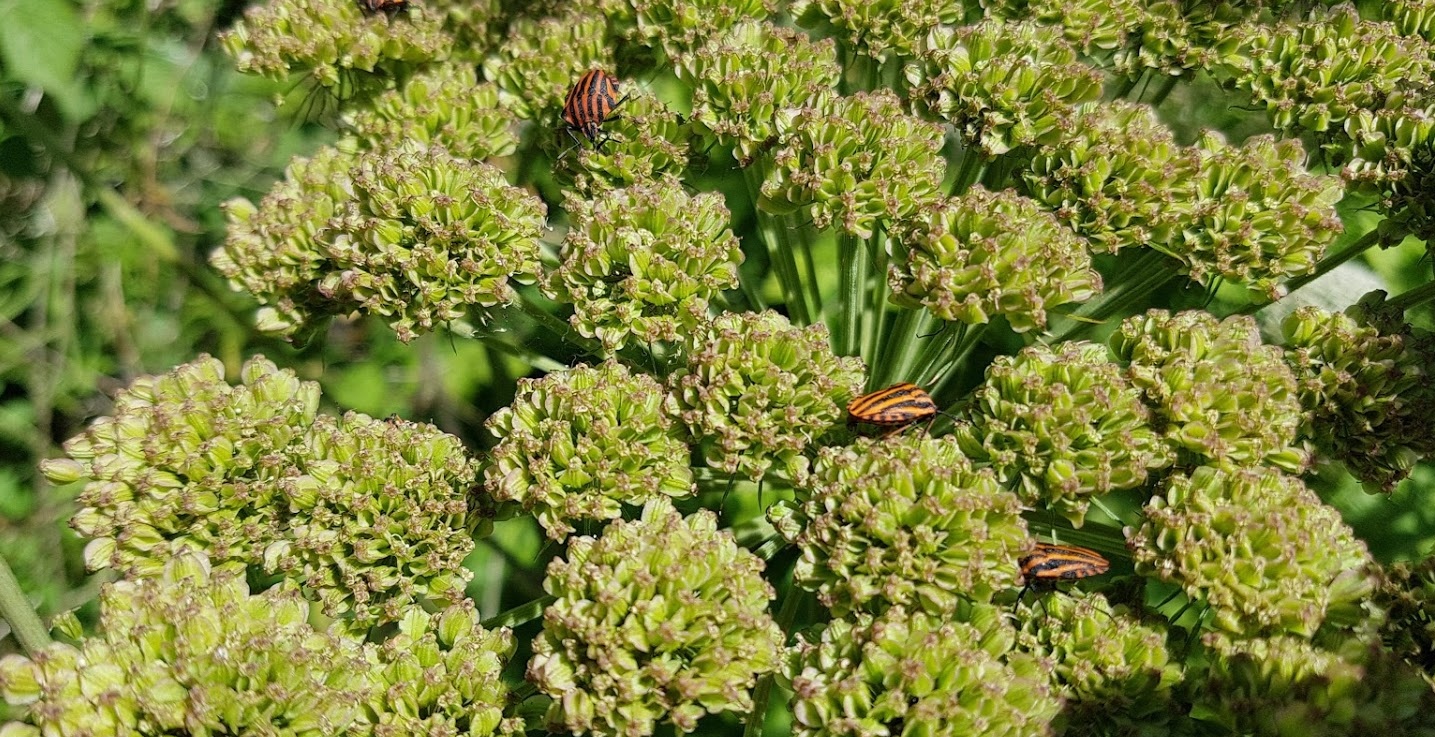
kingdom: Animalia
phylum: Arthropoda
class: Insecta
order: Hemiptera
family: Pentatomidae
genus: Graphosoma
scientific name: Graphosoma italicum
